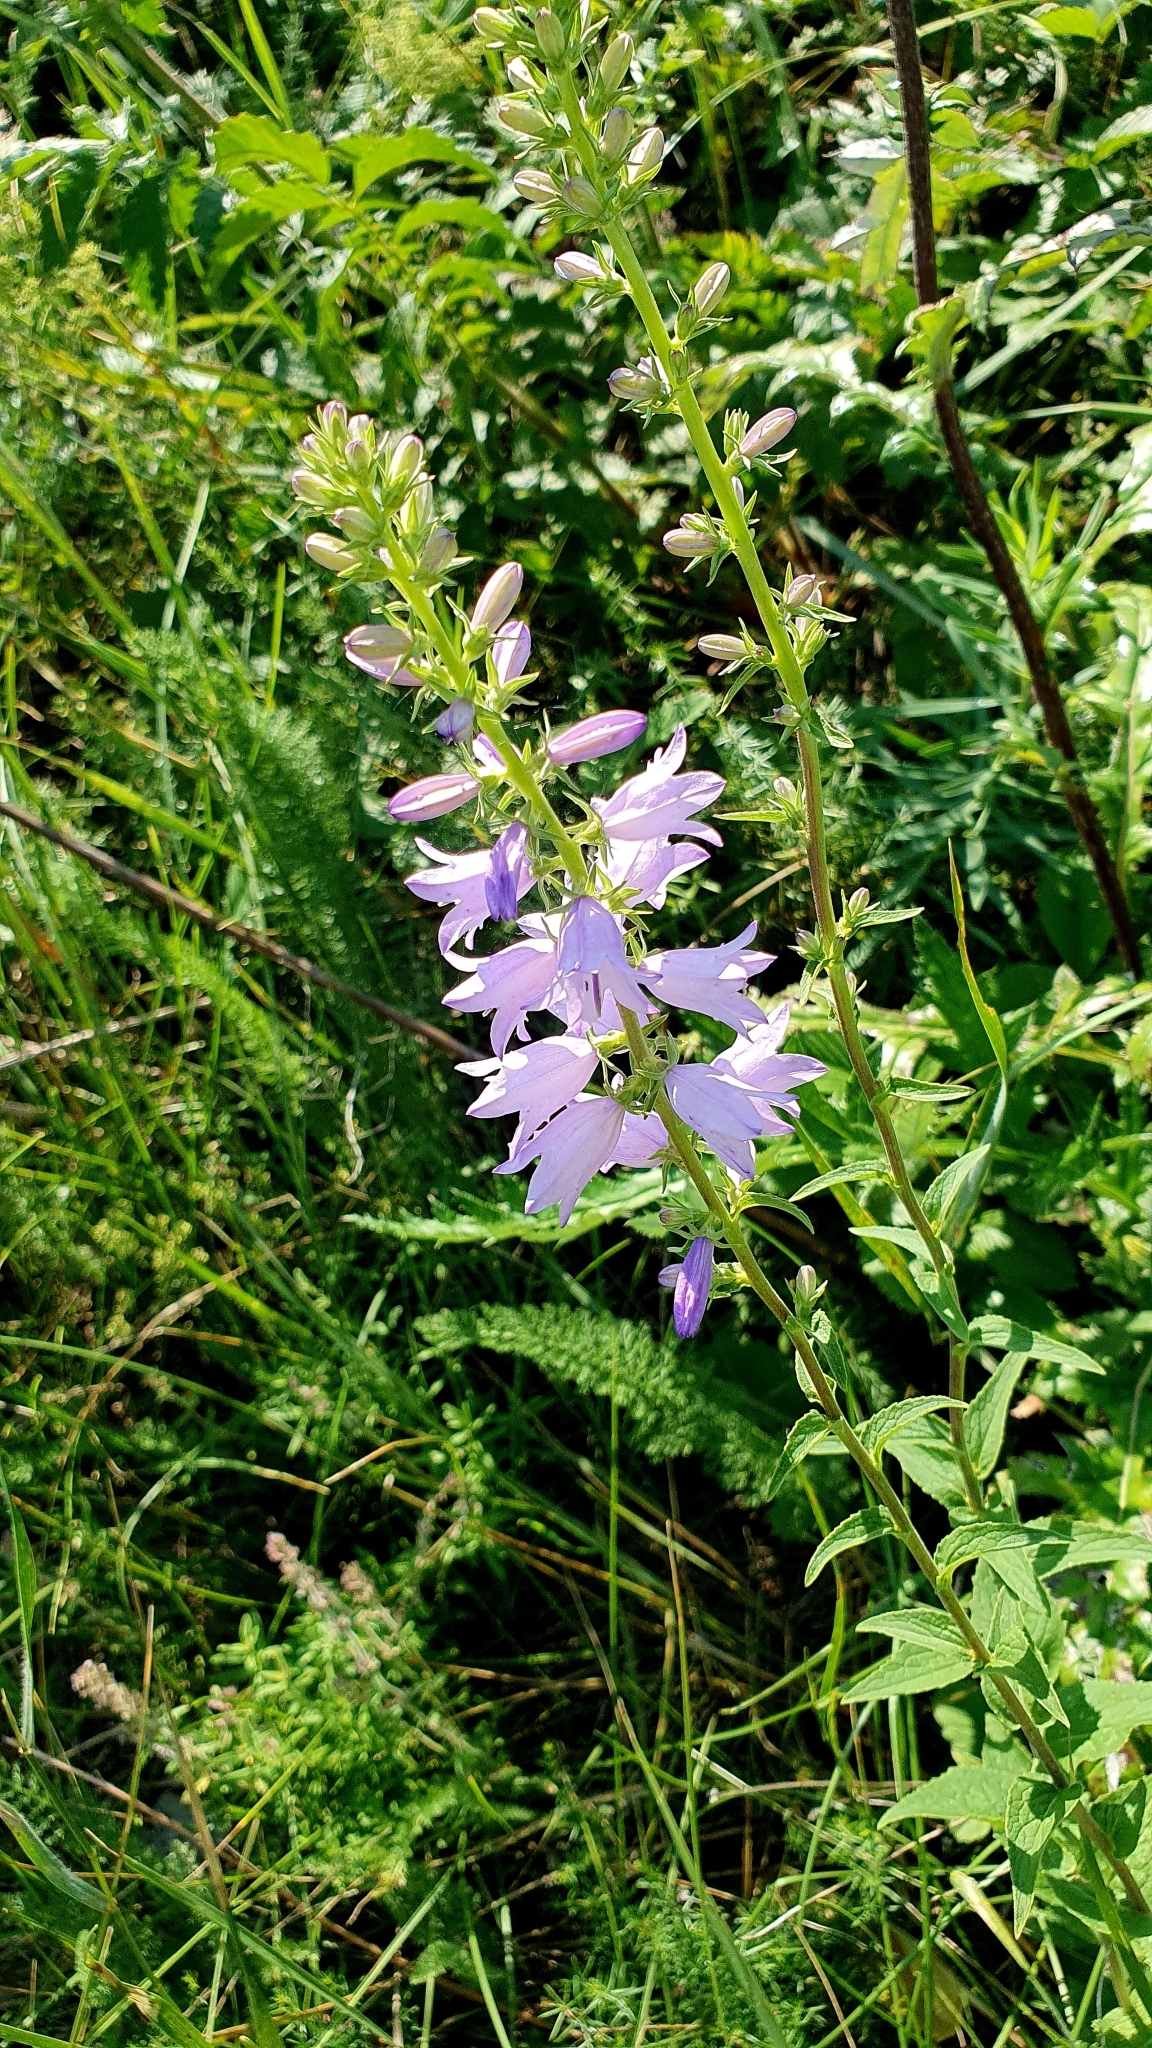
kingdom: Plantae
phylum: Tracheophyta
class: Magnoliopsida
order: Asterales
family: Campanulaceae
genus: Campanula
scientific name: Campanula bononiensis
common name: Pale bellflower
